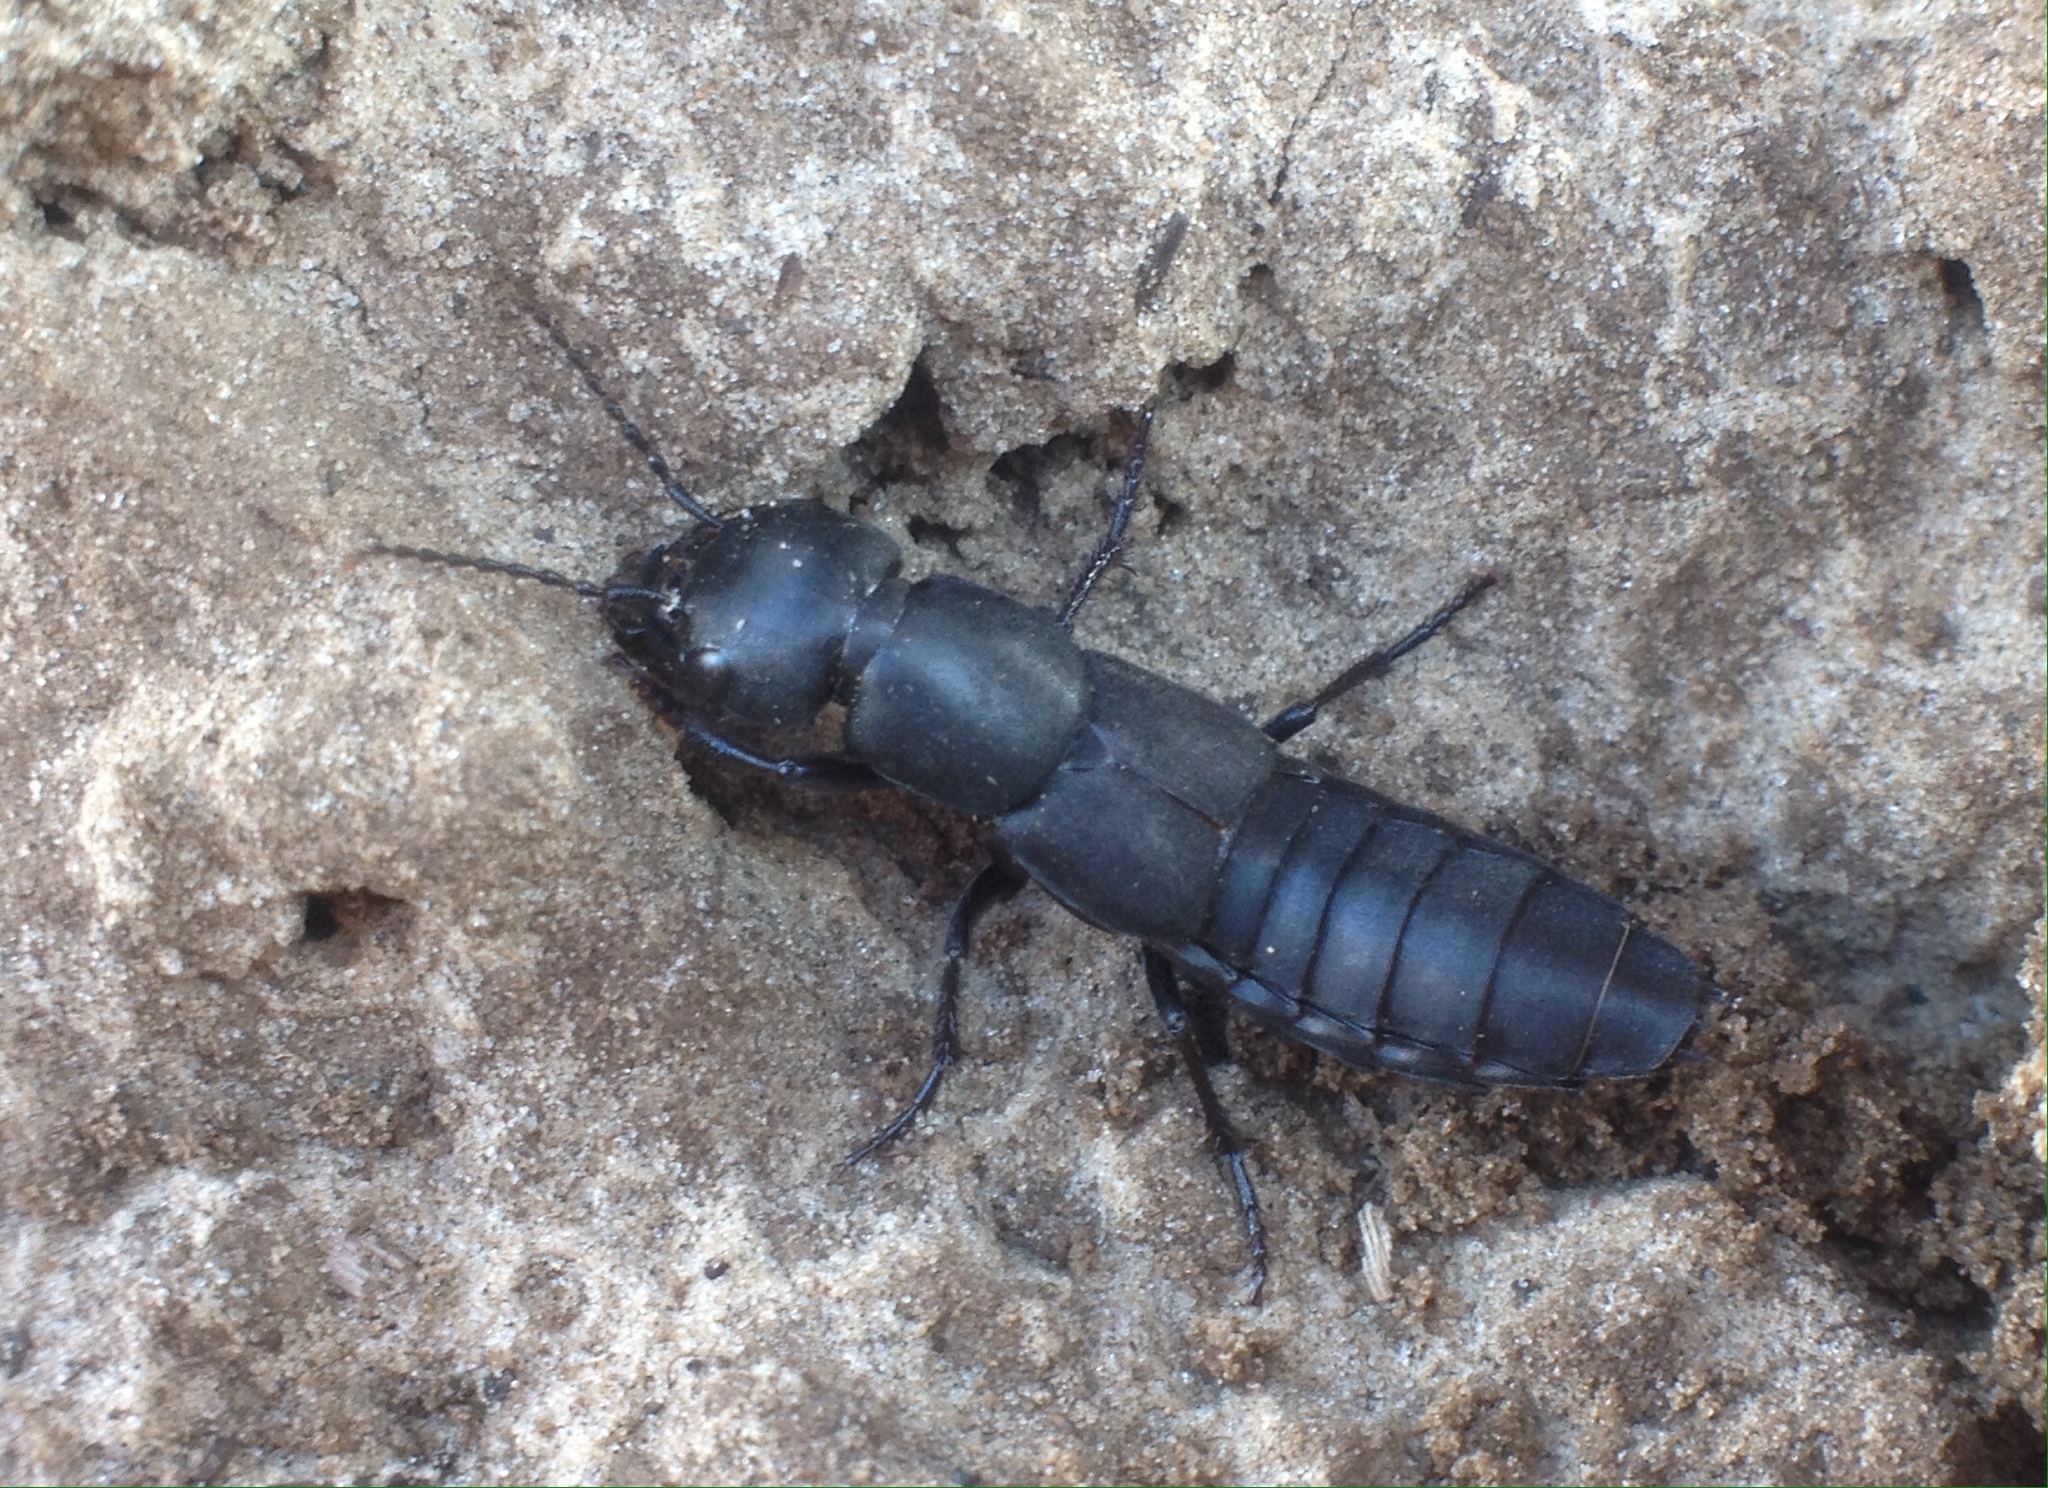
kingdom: Animalia
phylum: Arthropoda
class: Insecta
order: Coleoptera
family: Staphylinidae
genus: Ocypus
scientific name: Ocypus curtipennis
